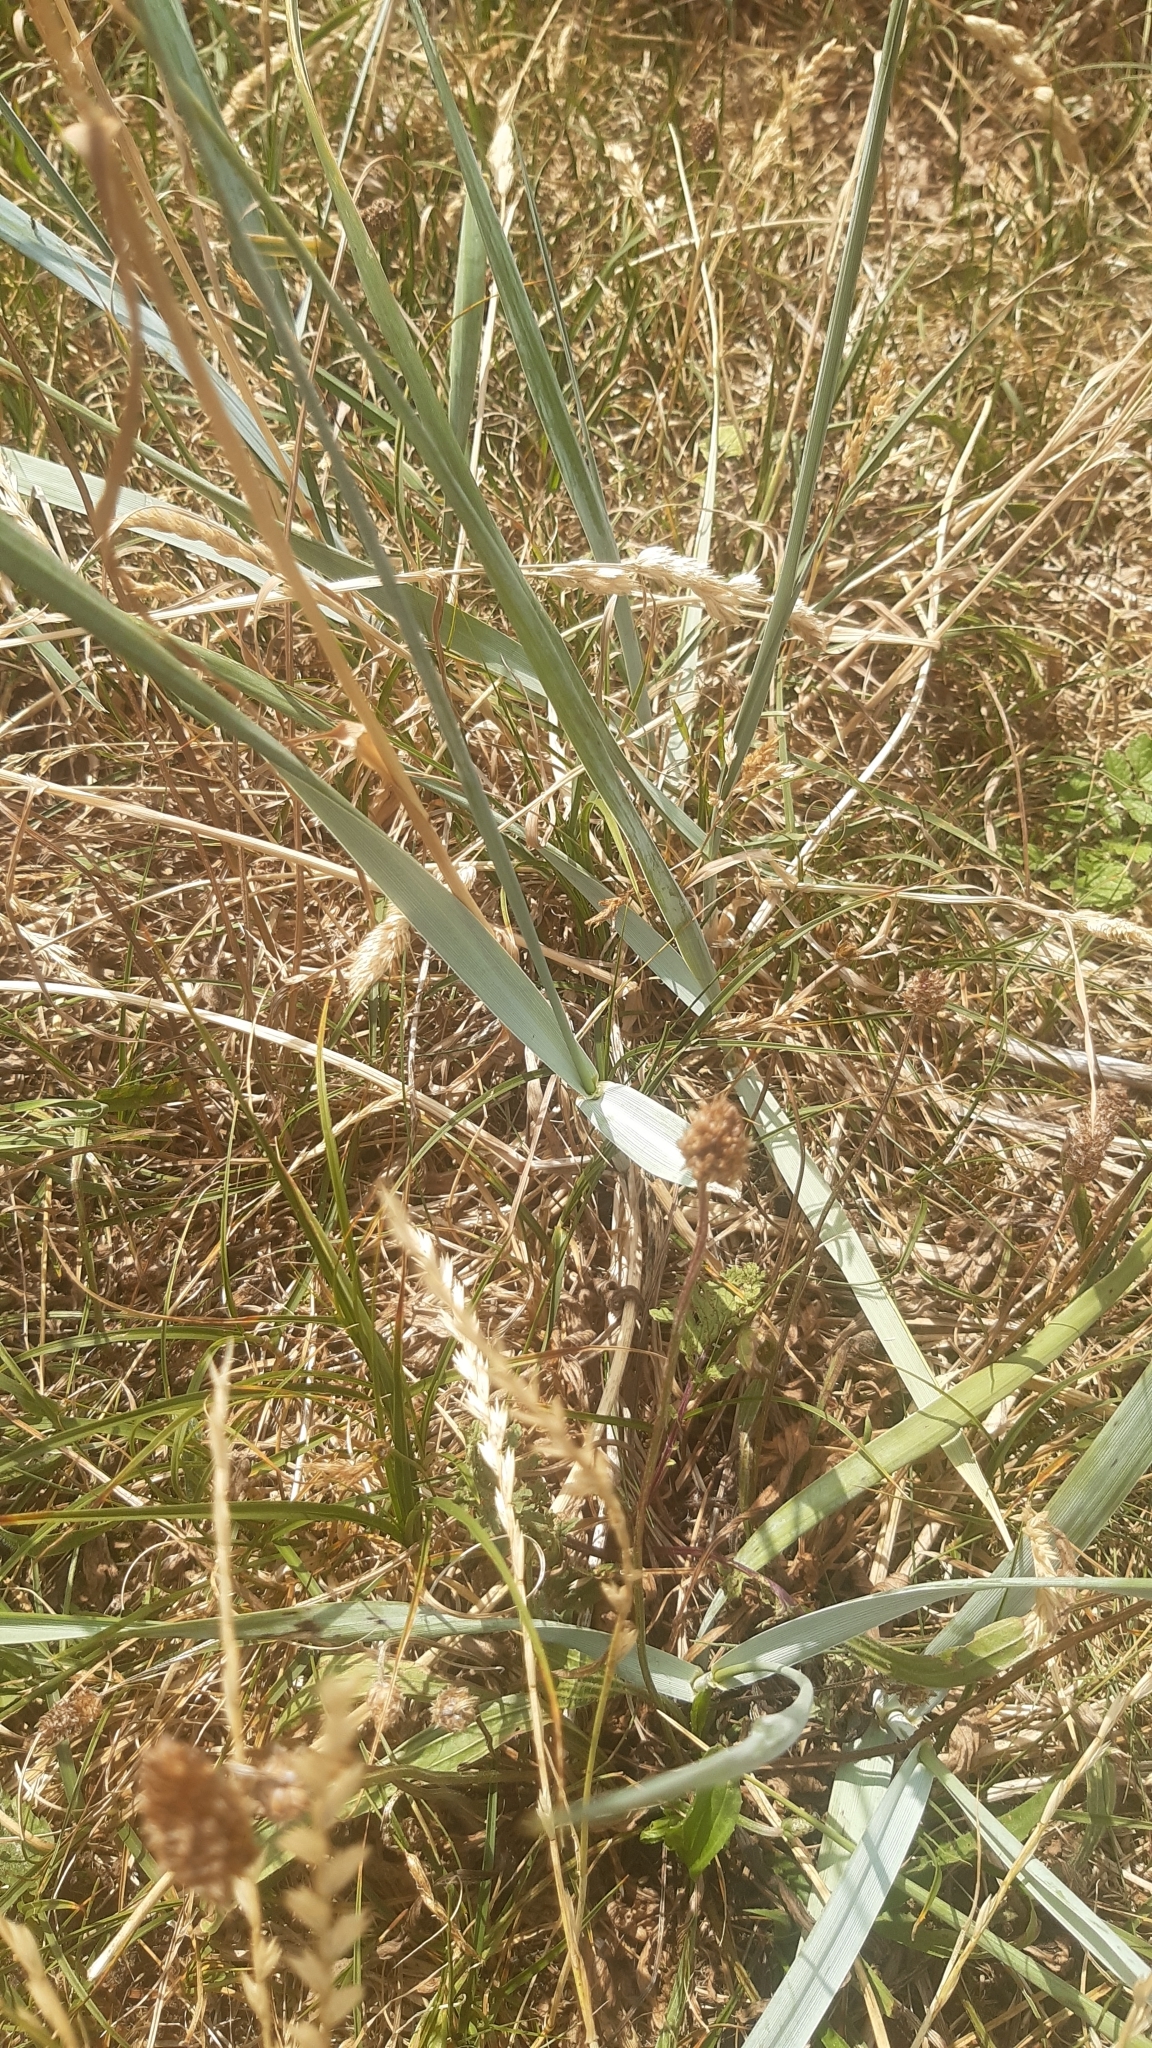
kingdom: Plantae
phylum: Tracheophyta
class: Liliopsida
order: Poales
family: Poaceae
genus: Leymus
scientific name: Leymus arenarius
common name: Lyme-grass
